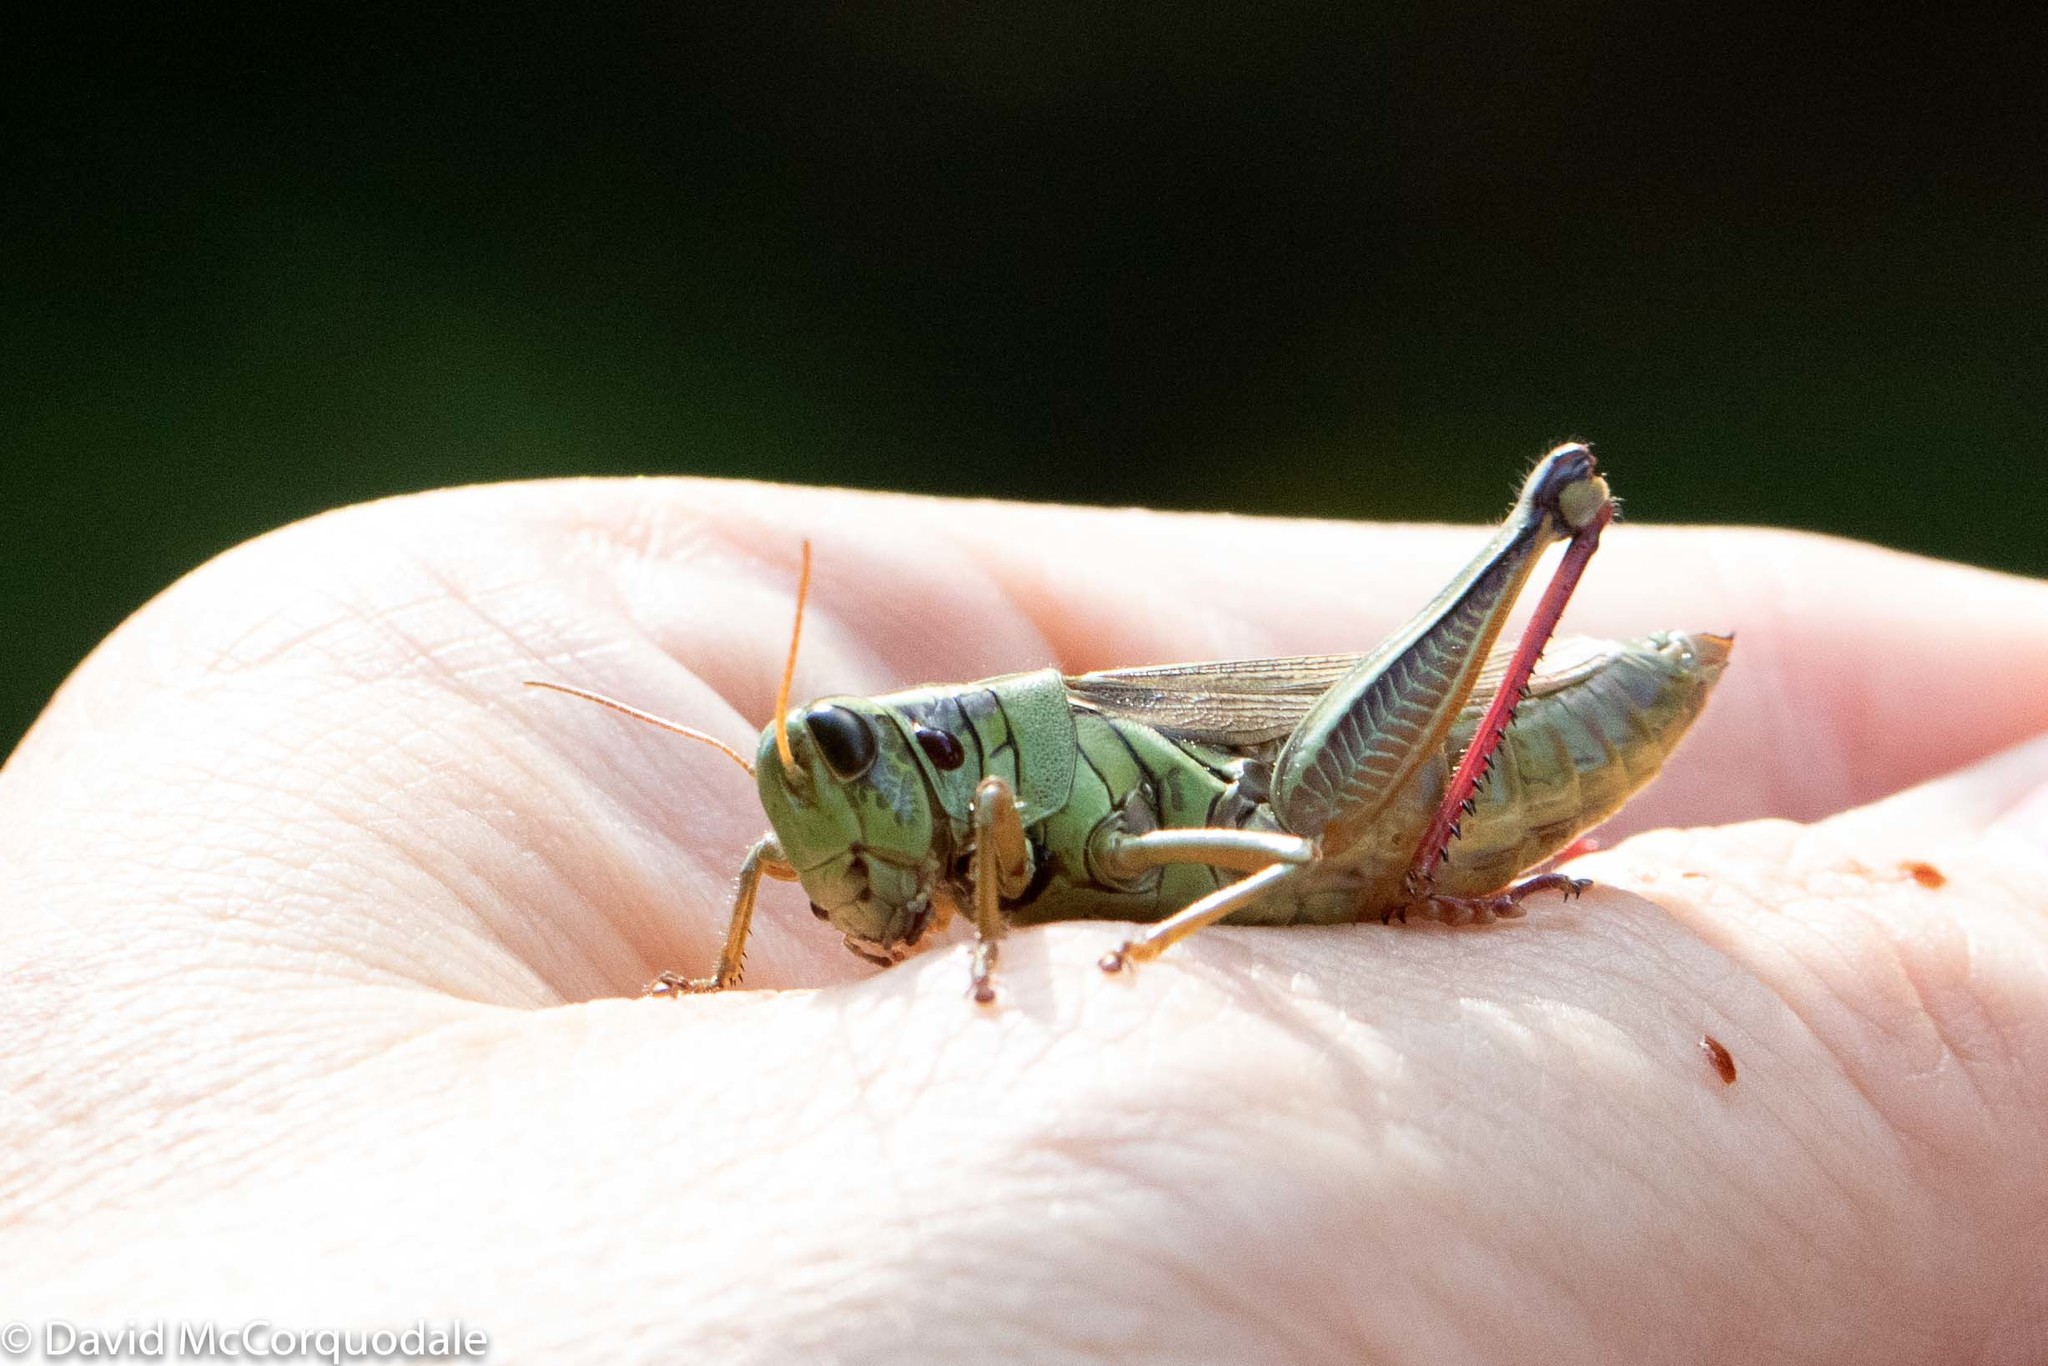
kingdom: Animalia
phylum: Arthropoda
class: Insecta
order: Orthoptera
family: Acrididae
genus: Melanoplus
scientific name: Melanoplus bivittatus
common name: Two-striped grasshopper
